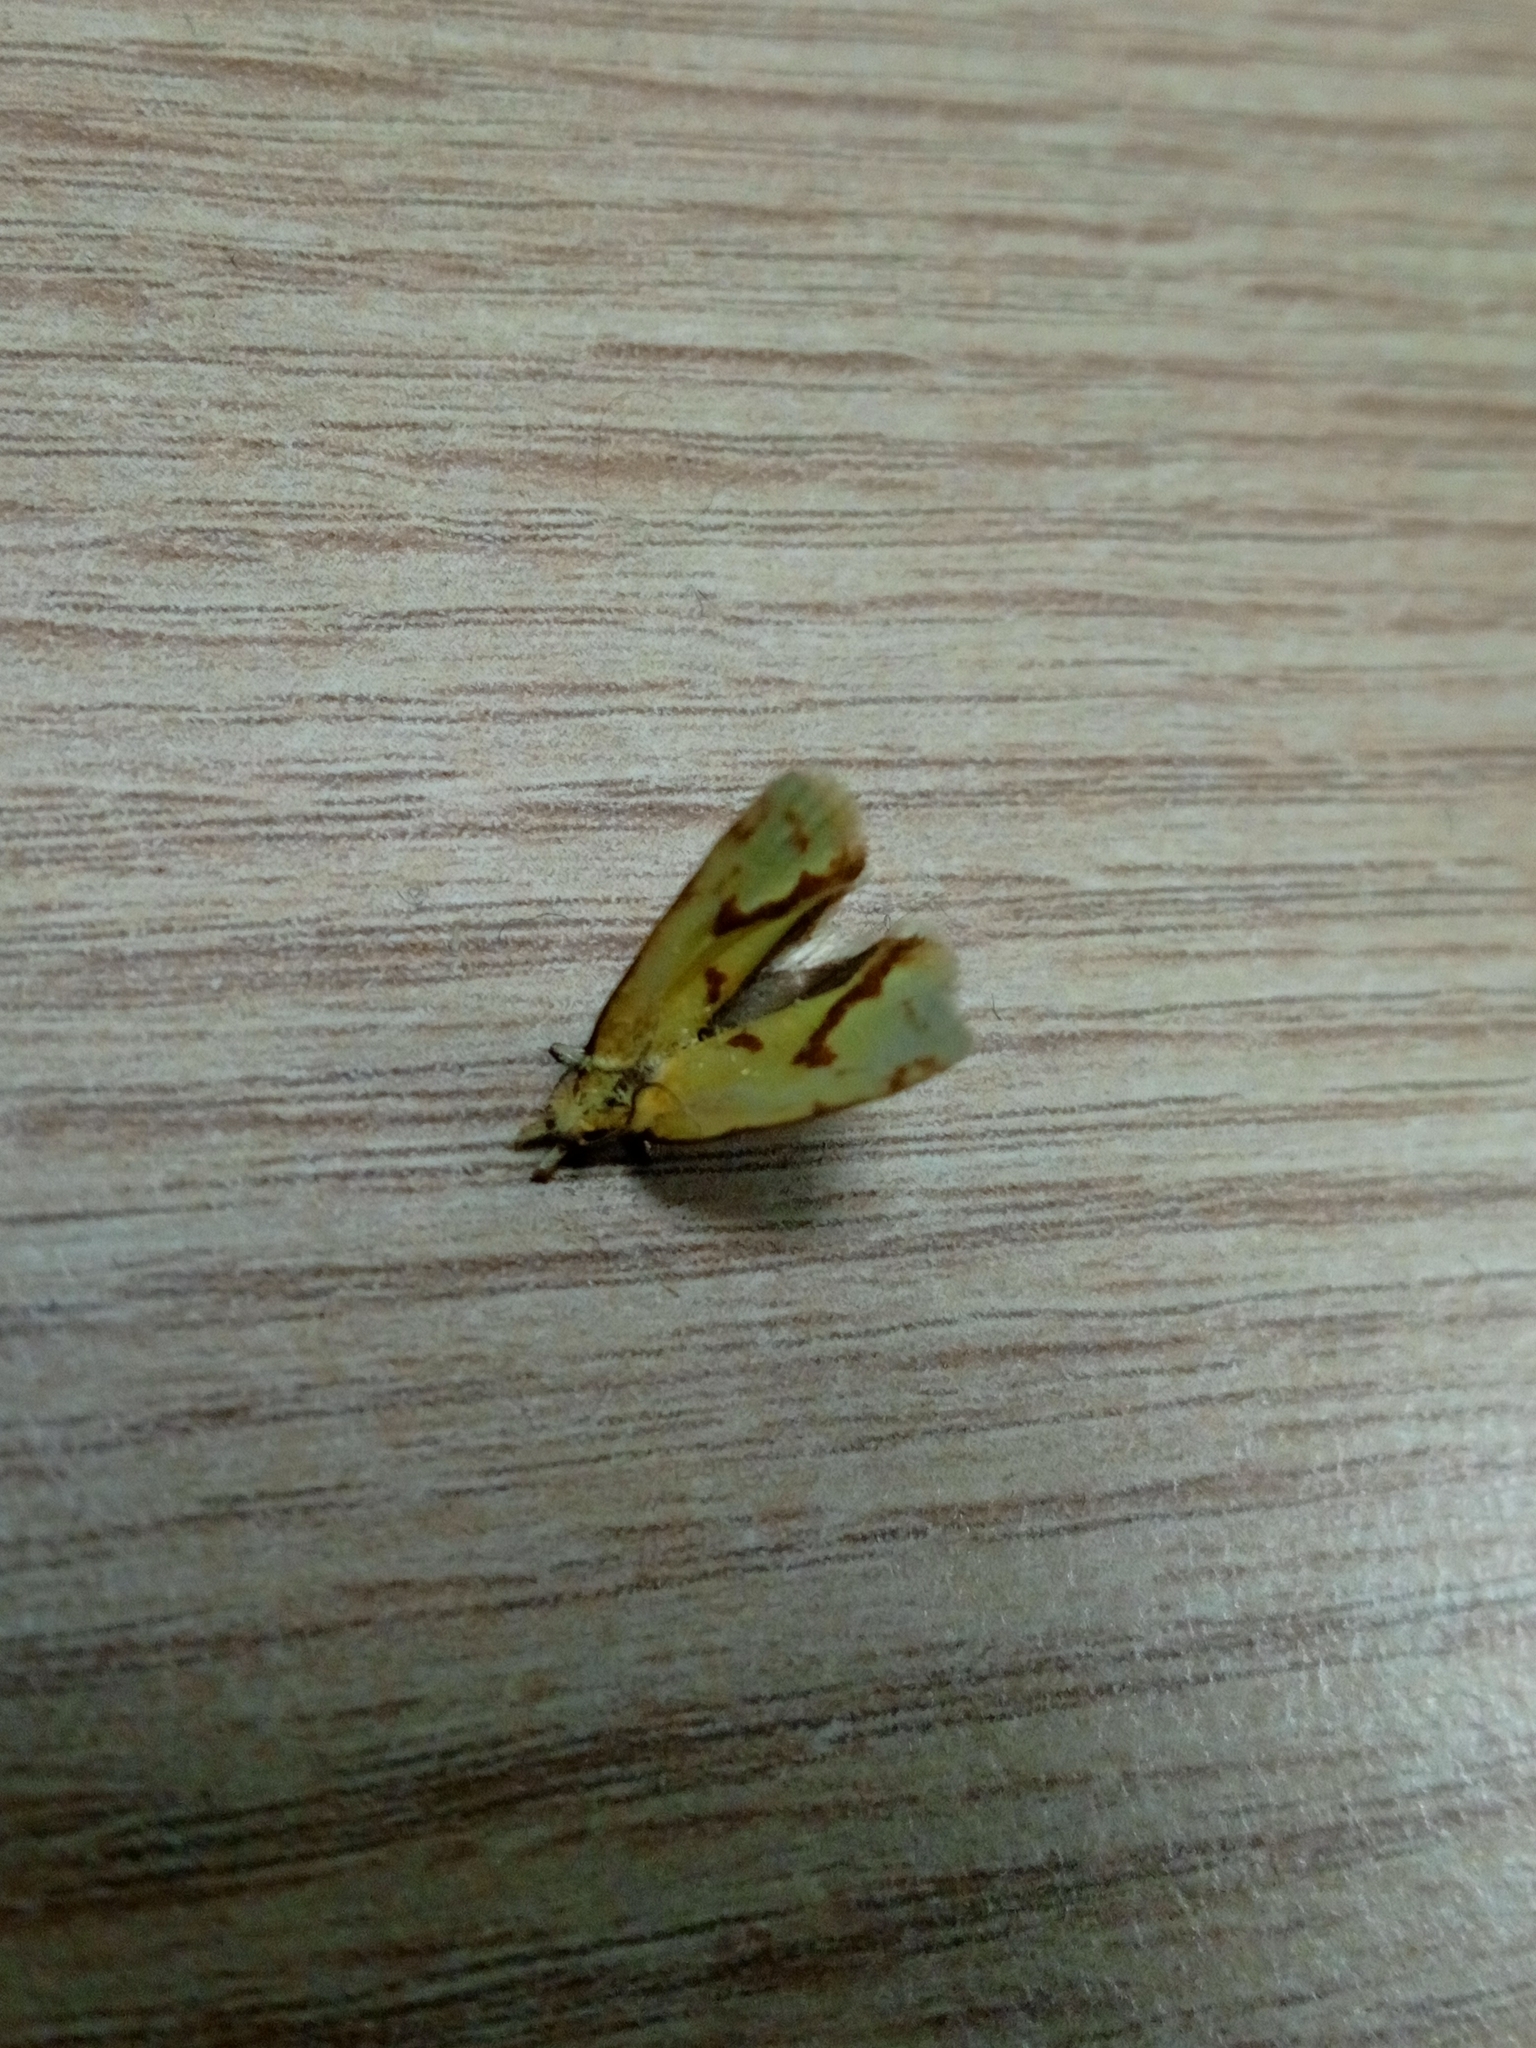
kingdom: Animalia
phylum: Arthropoda
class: Insecta
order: Lepidoptera
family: Tortricidae
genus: Agapeta
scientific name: Agapeta hamana
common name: Common yellow conch
